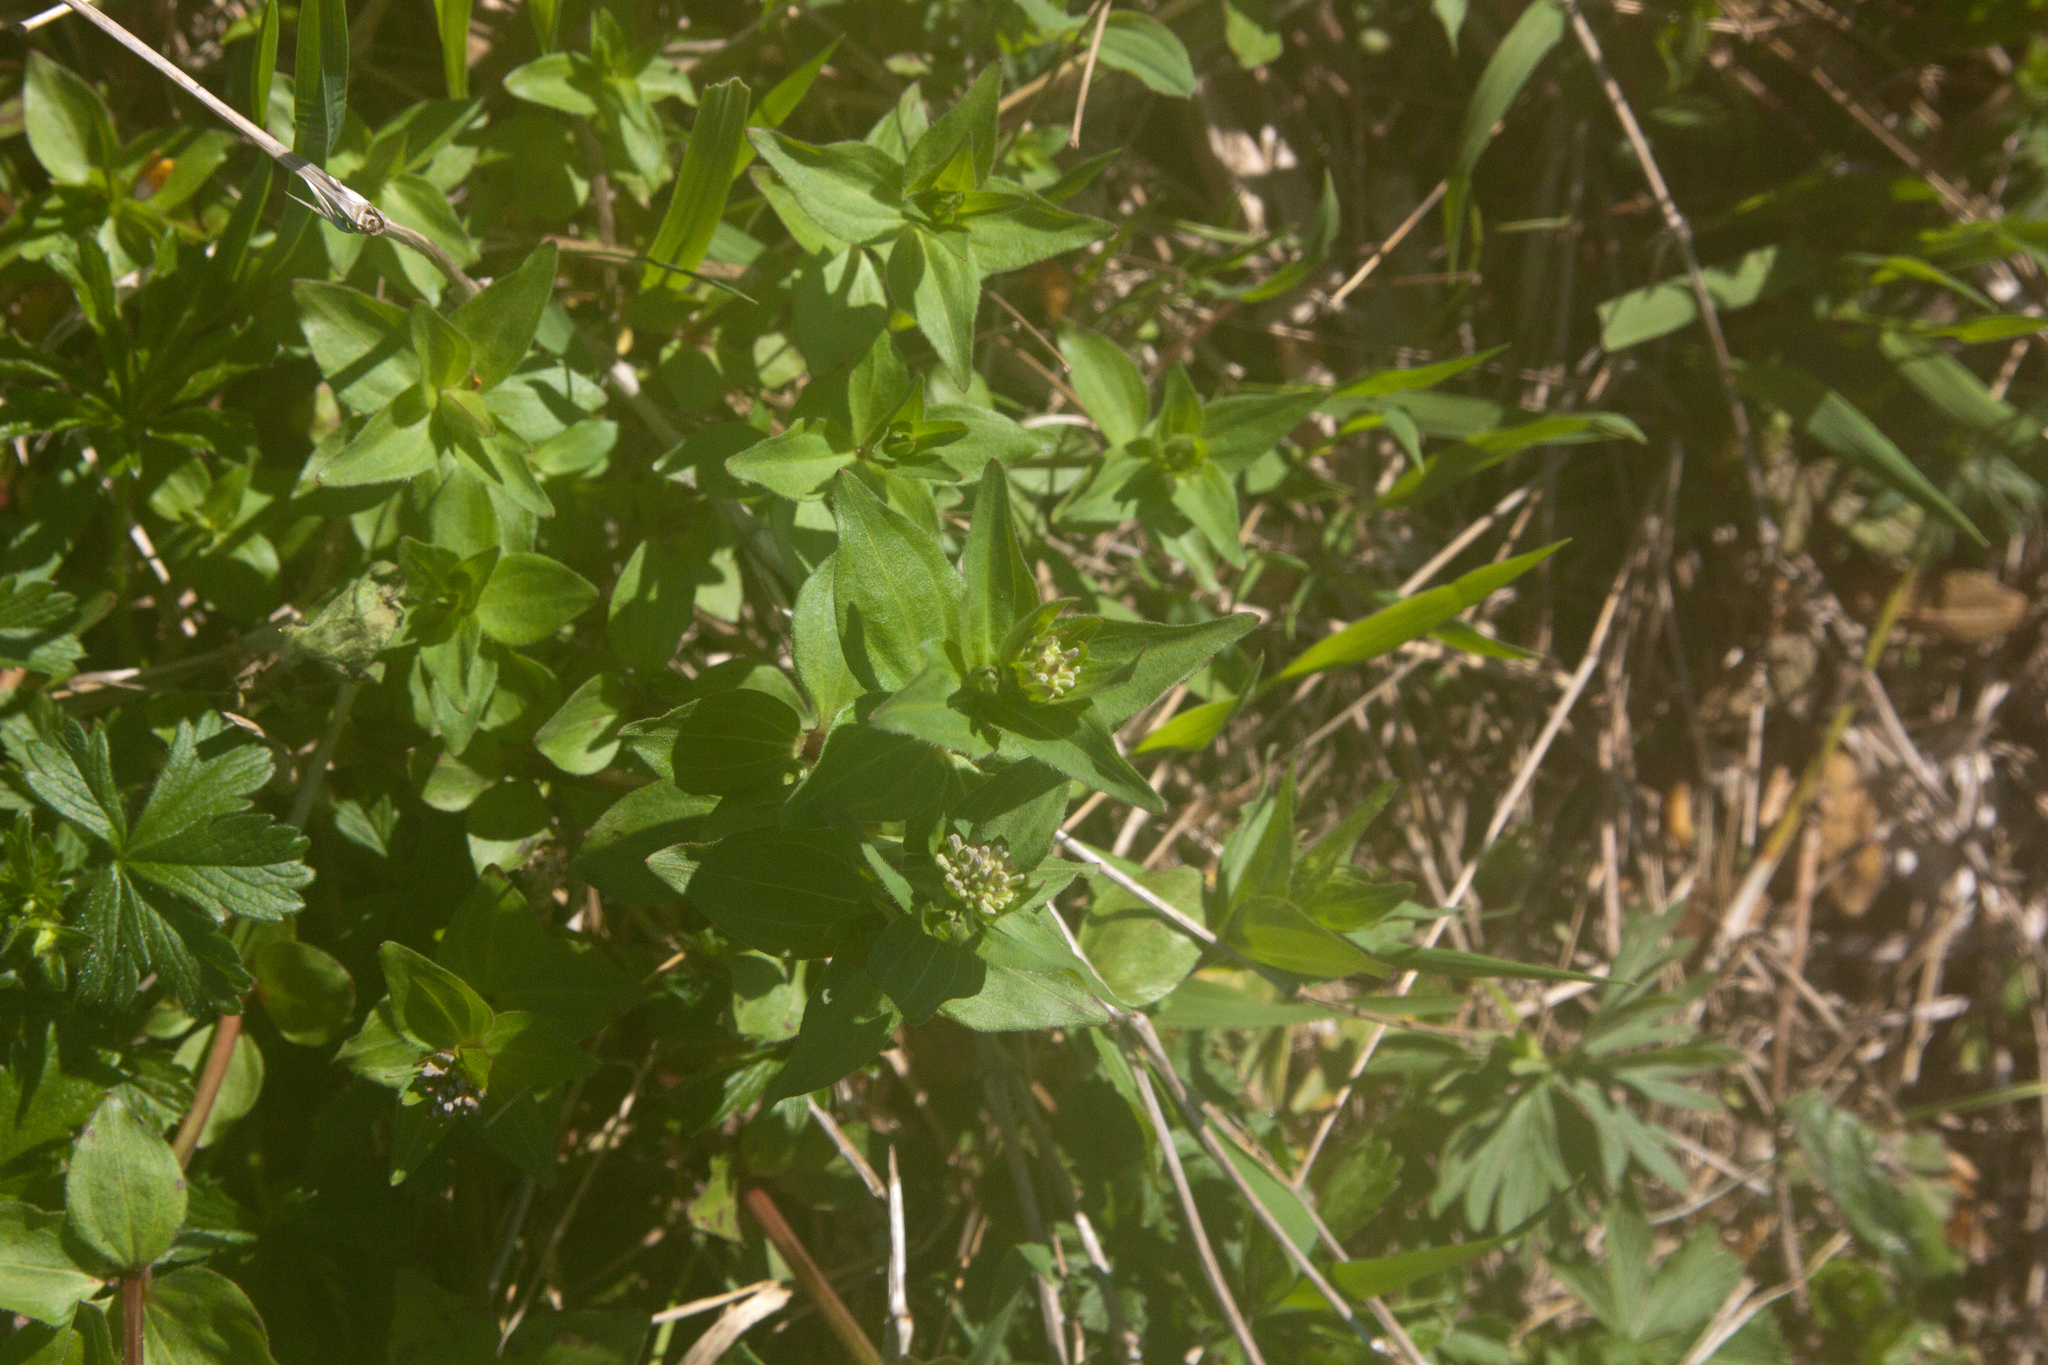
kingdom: Plantae
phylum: Tracheophyta
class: Magnoliopsida
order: Gentianales
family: Rubiaceae
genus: Asperula
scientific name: Asperula taurina
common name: Pink woodruff
